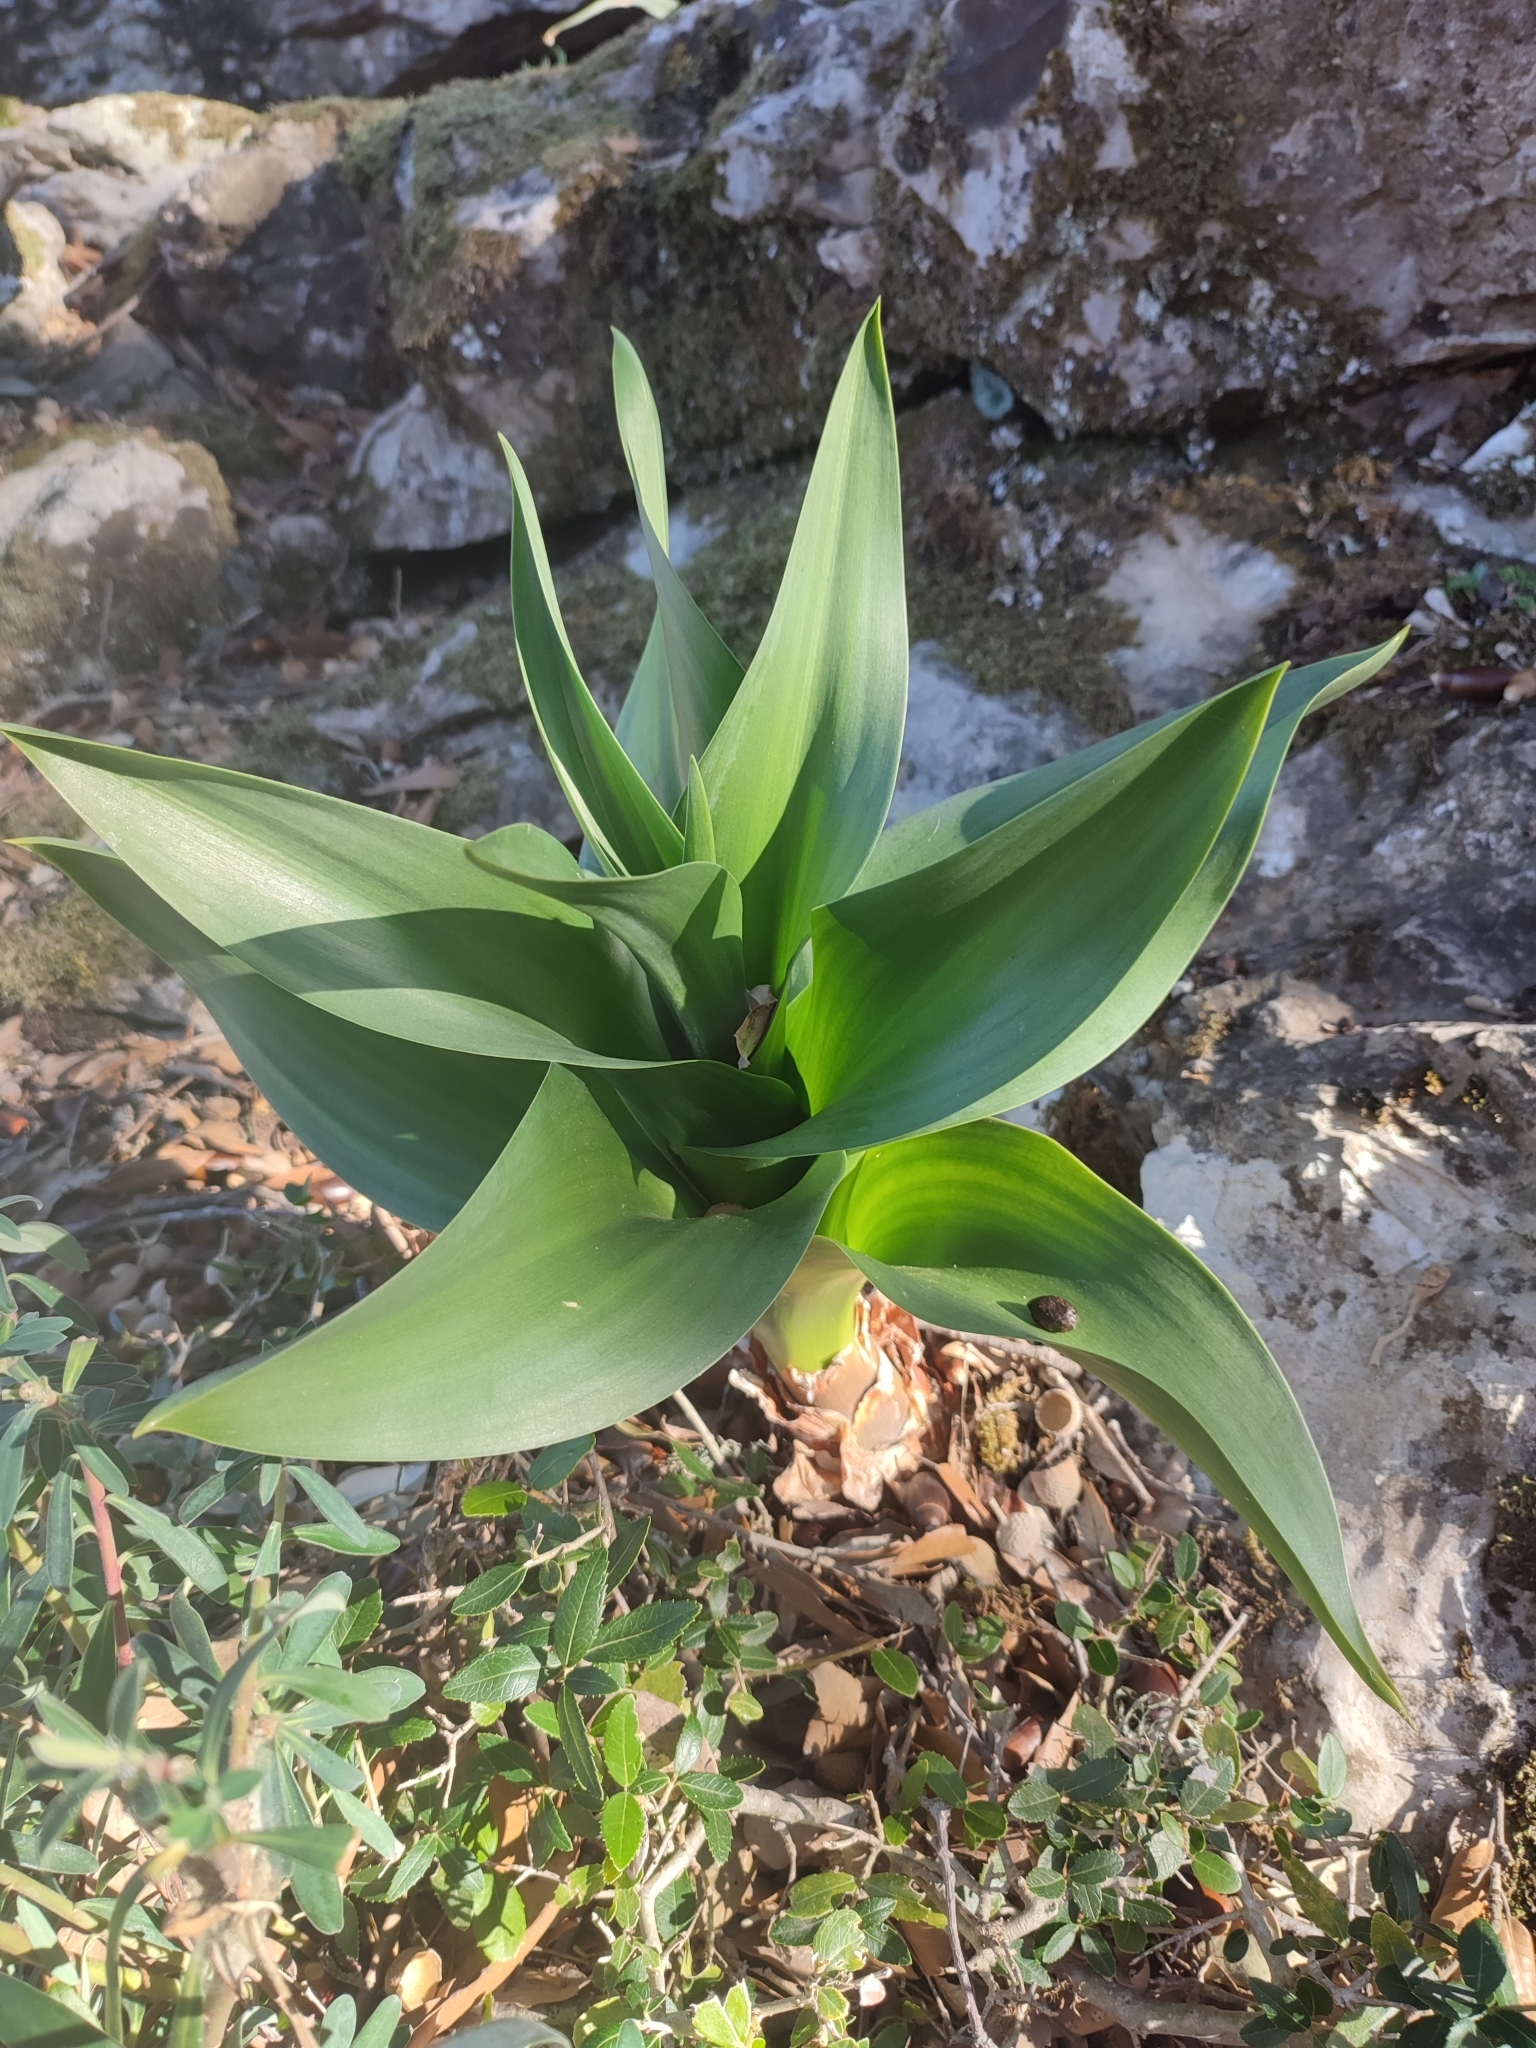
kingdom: Plantae
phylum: Tracheophyta
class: Liliopsida
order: Asparagales
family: Asparagaceae
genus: Drimia
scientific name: Drimia maritima
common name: Maritime squill
